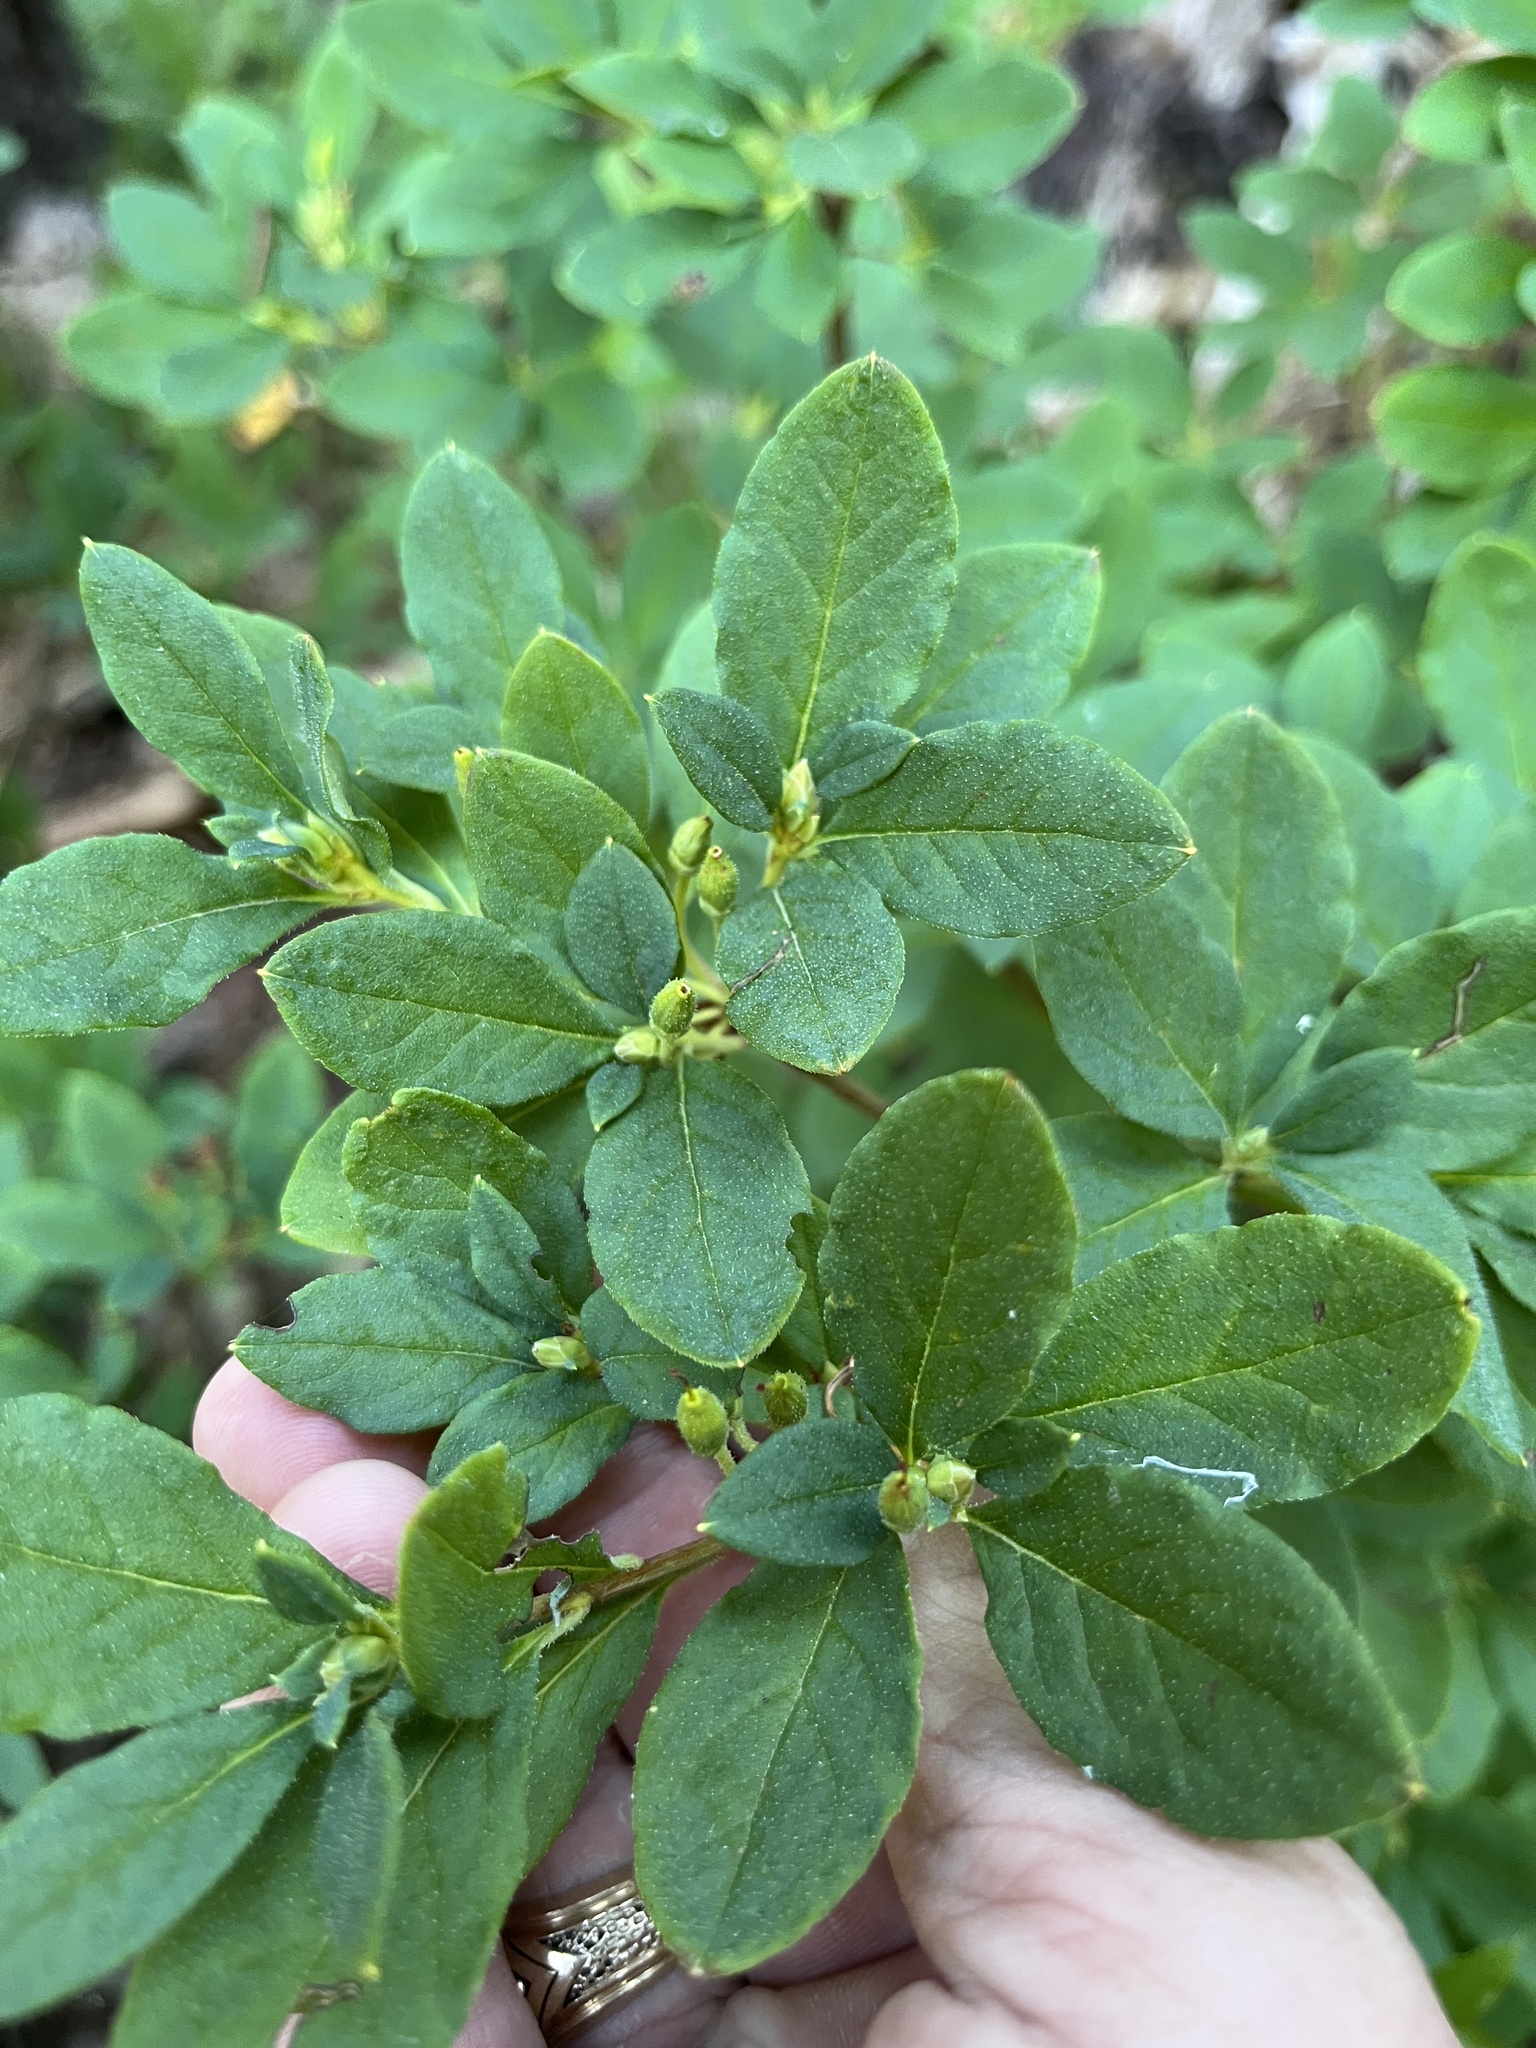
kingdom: Plantae
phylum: Tracheophyta
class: Magnoliopsida
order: Ericales
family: Ericaceae
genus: Rhododendron
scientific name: Rhododendron menziesii
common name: Pacific menziesia
